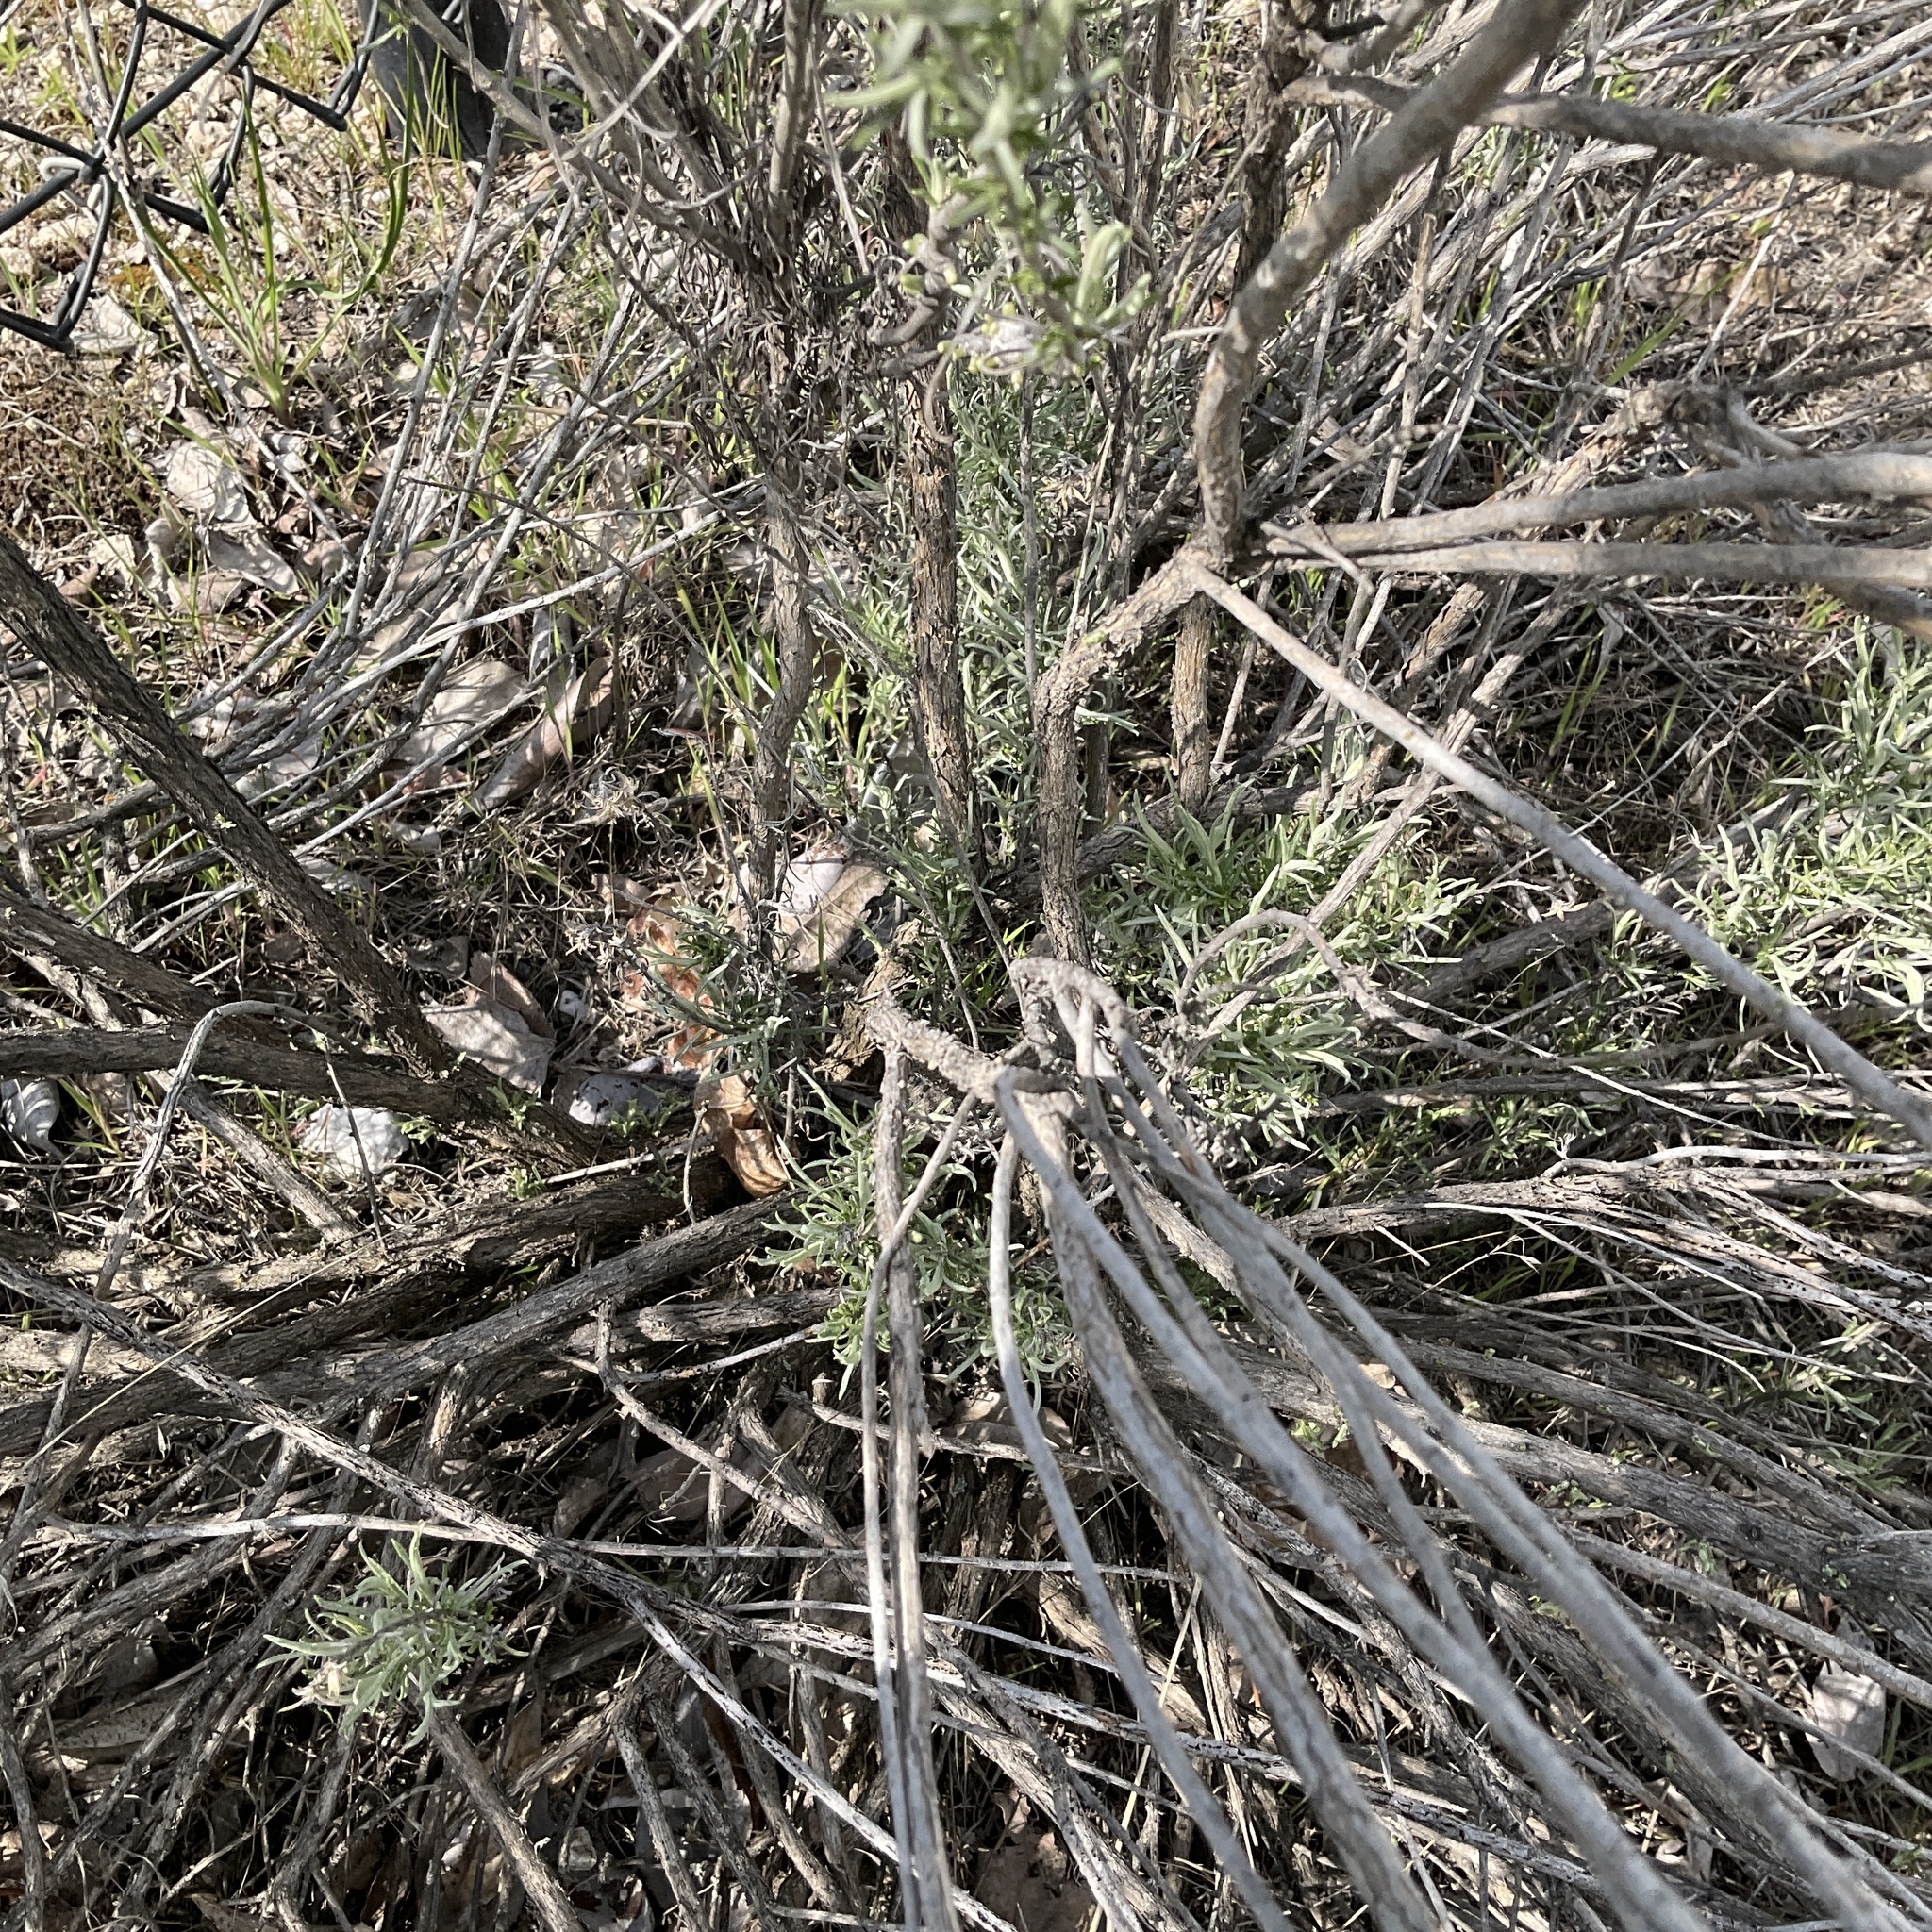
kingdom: Plantae
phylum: Tracheophyta
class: Magnoliopsida
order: Asterales
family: Asteraceae
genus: Ericameria
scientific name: Ericameria nauseosa
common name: Rubber rabbitbrush
